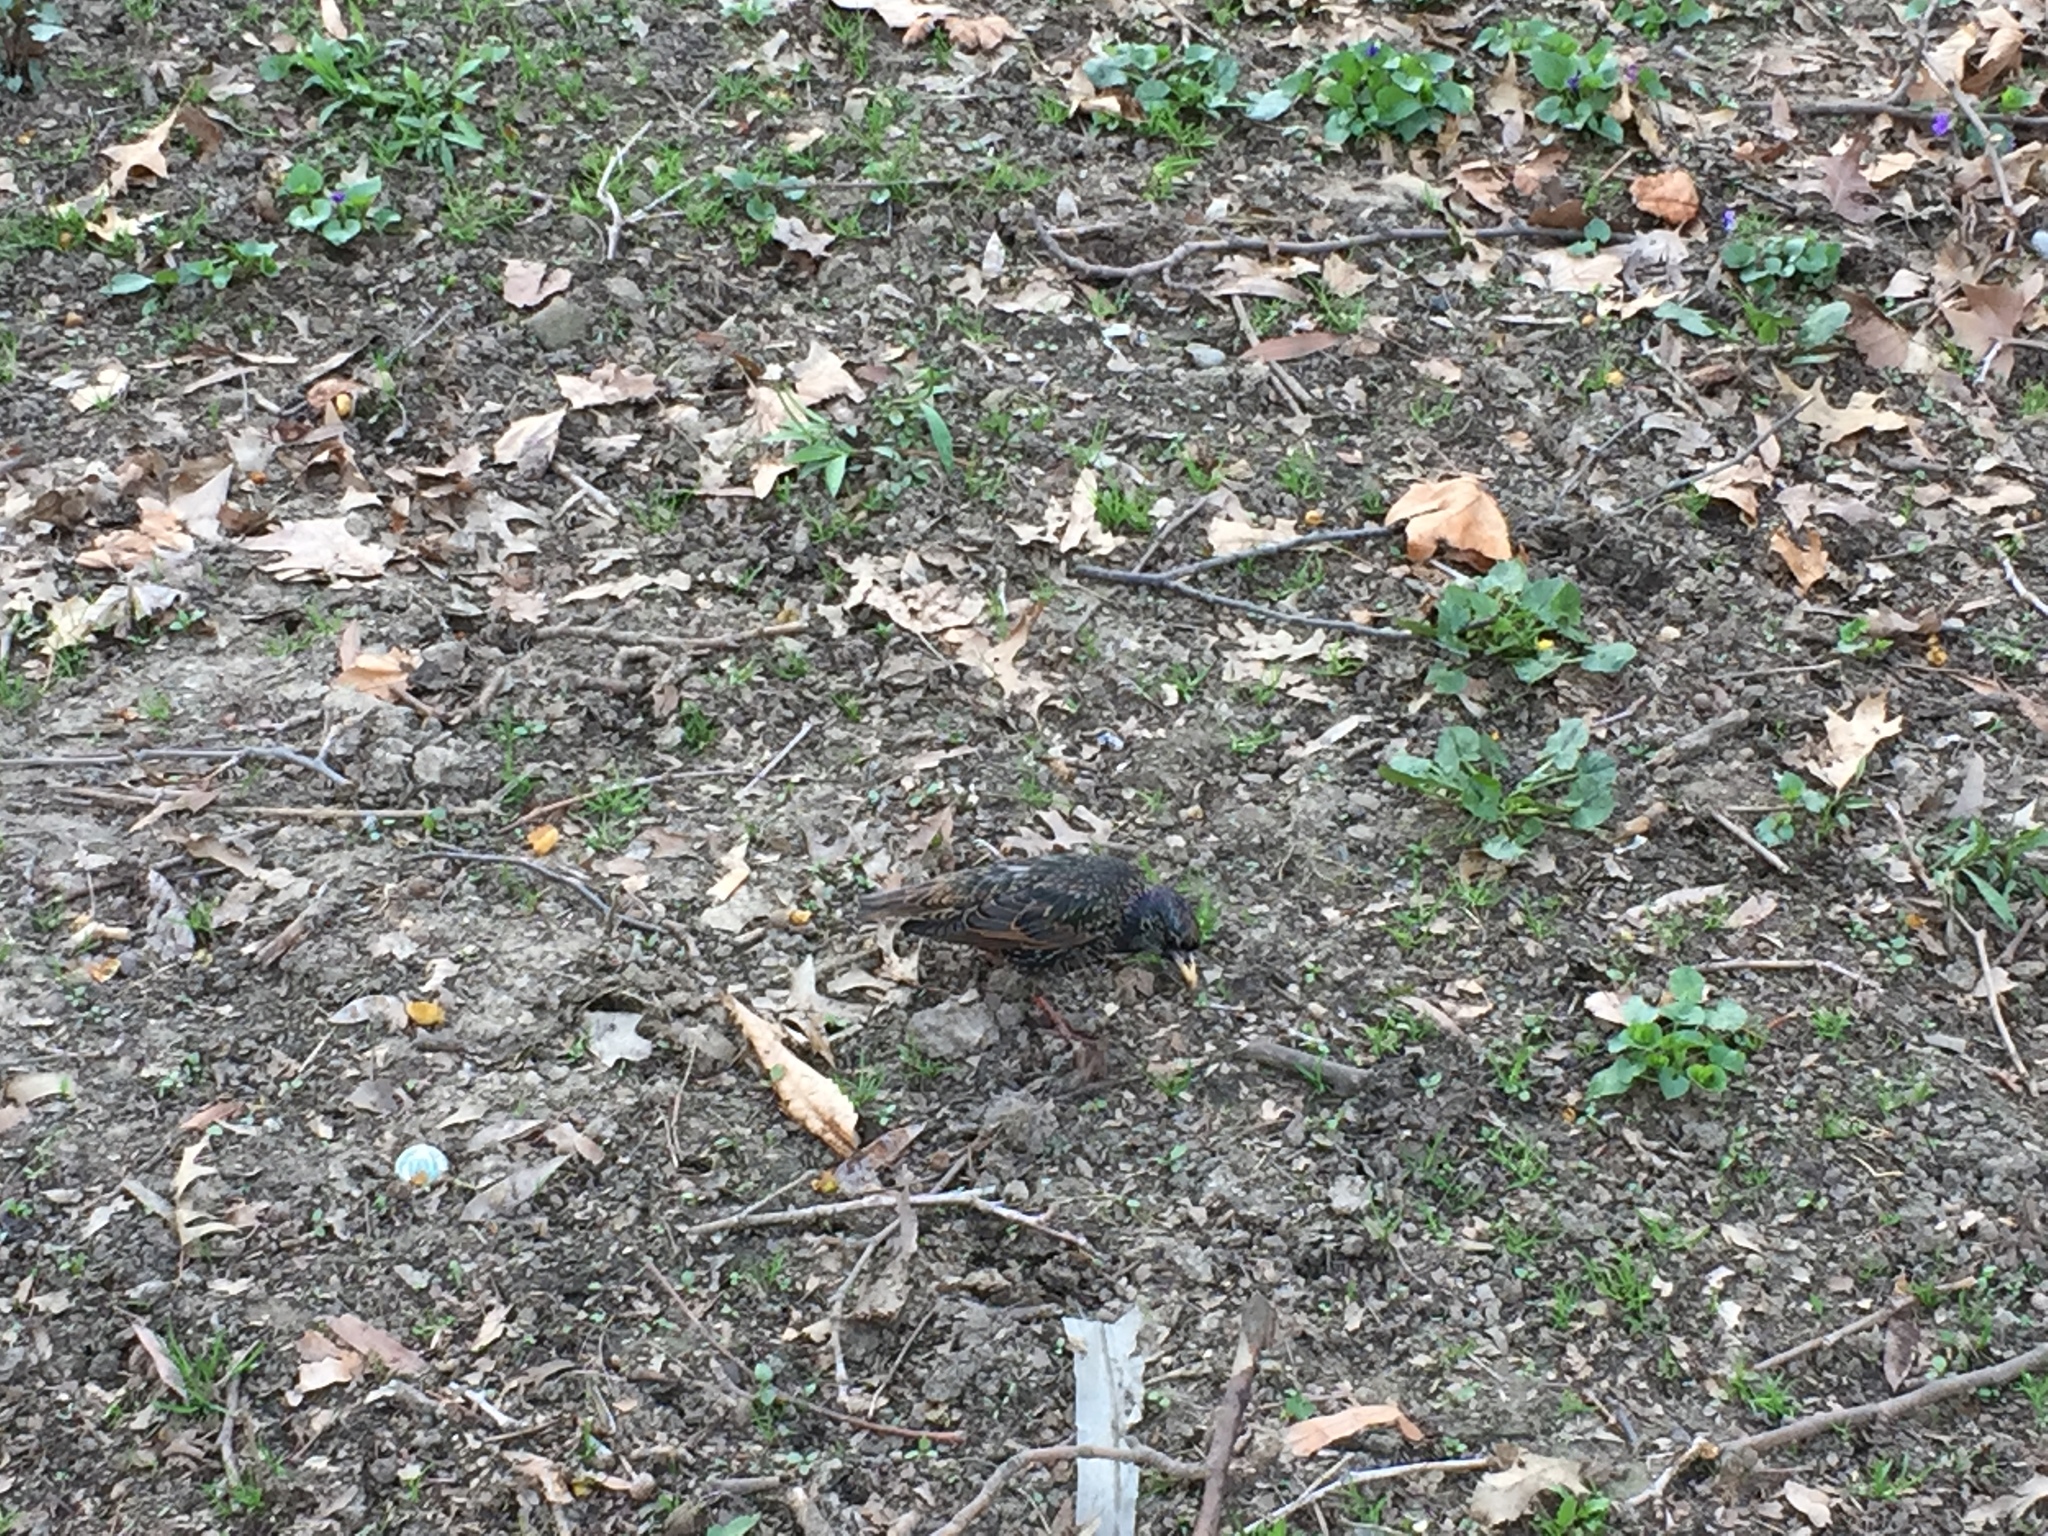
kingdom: Animalia
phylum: Chordata
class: Aves
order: Passeriformes
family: Sturnidae
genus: Sturnus
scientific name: Sturnus vulgaris
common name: Common starling
